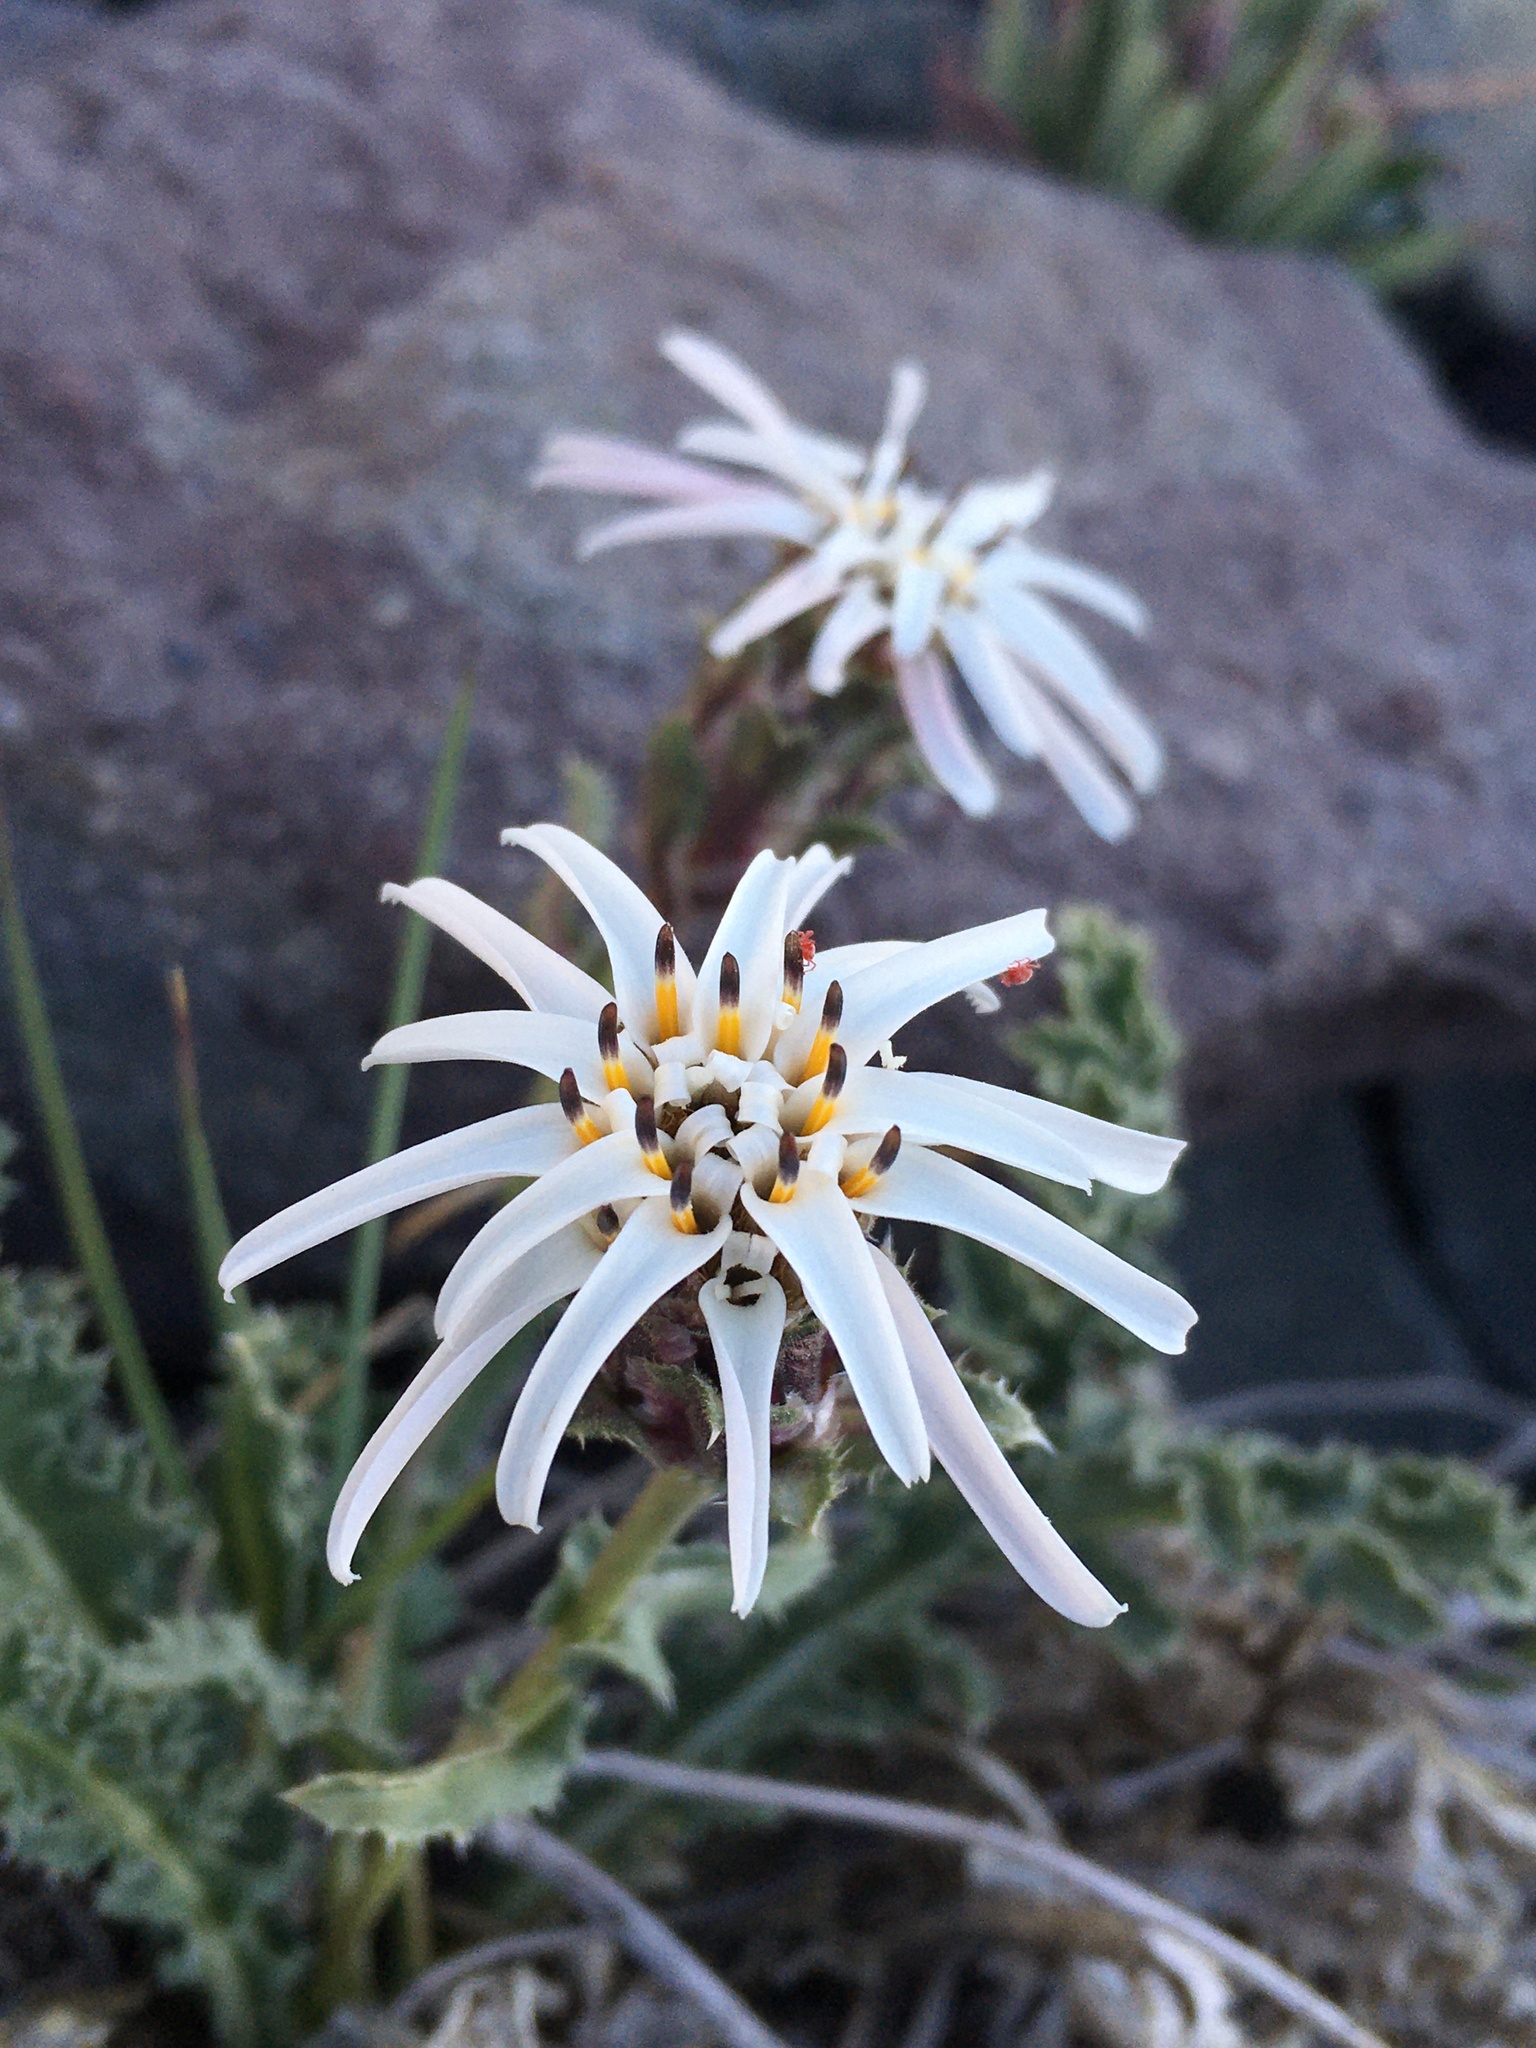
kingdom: Plantae
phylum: Tracheophyta
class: Magnoliopsida
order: Asterales
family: Asteraceae
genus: Perezia
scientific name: Perezia carthamoides
